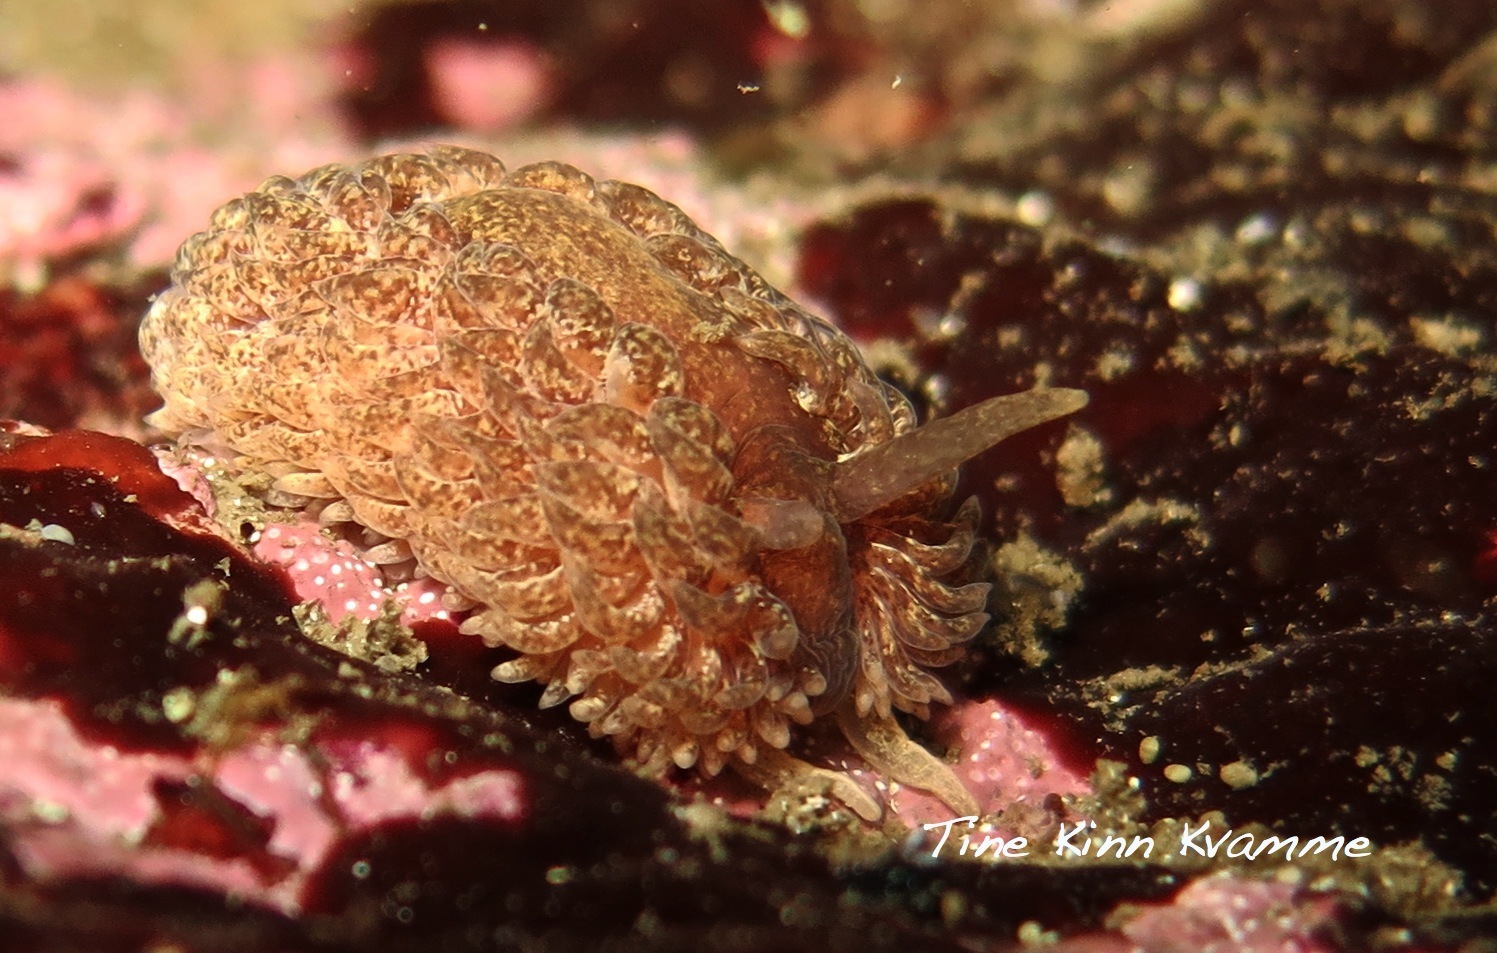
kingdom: Animalia
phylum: Mollusca
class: Gastropoda
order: Nudibranchia
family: Aeolidiidae
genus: Aeolidia
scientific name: Aeolidia papillosa
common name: Common grey sea slug
